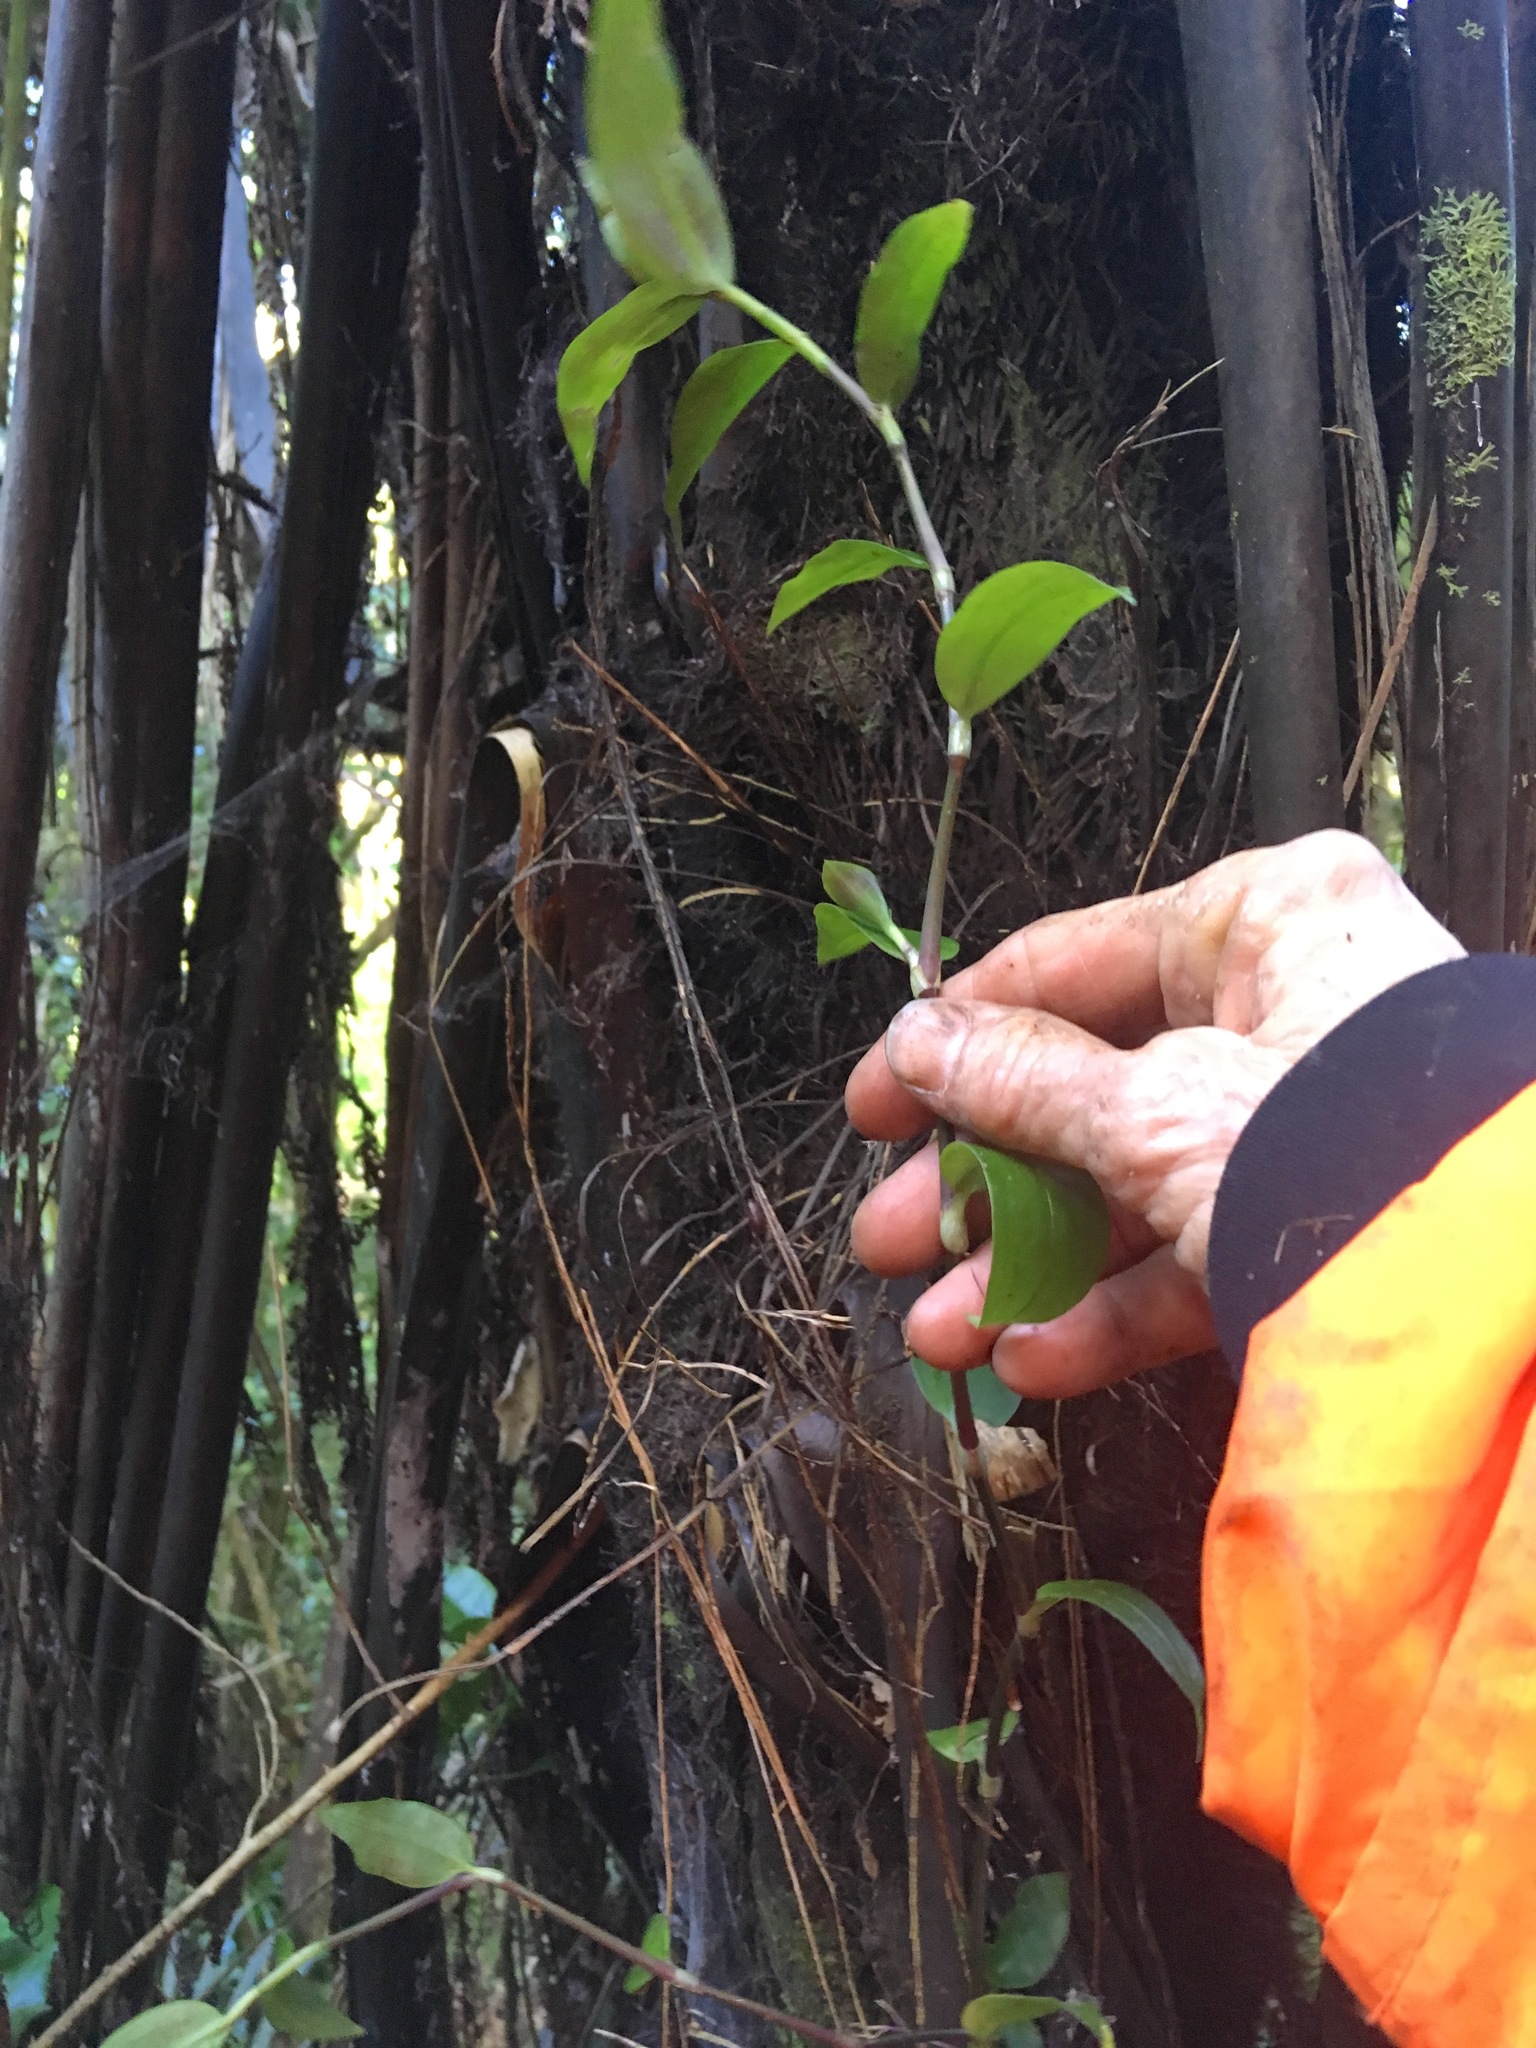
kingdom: Plantae
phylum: Tracheophyta
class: Liliopsida
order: Commelinales
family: Commelinaceae
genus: Tradescantia
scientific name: Tradescantia fluminensis
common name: Wandering-jew
